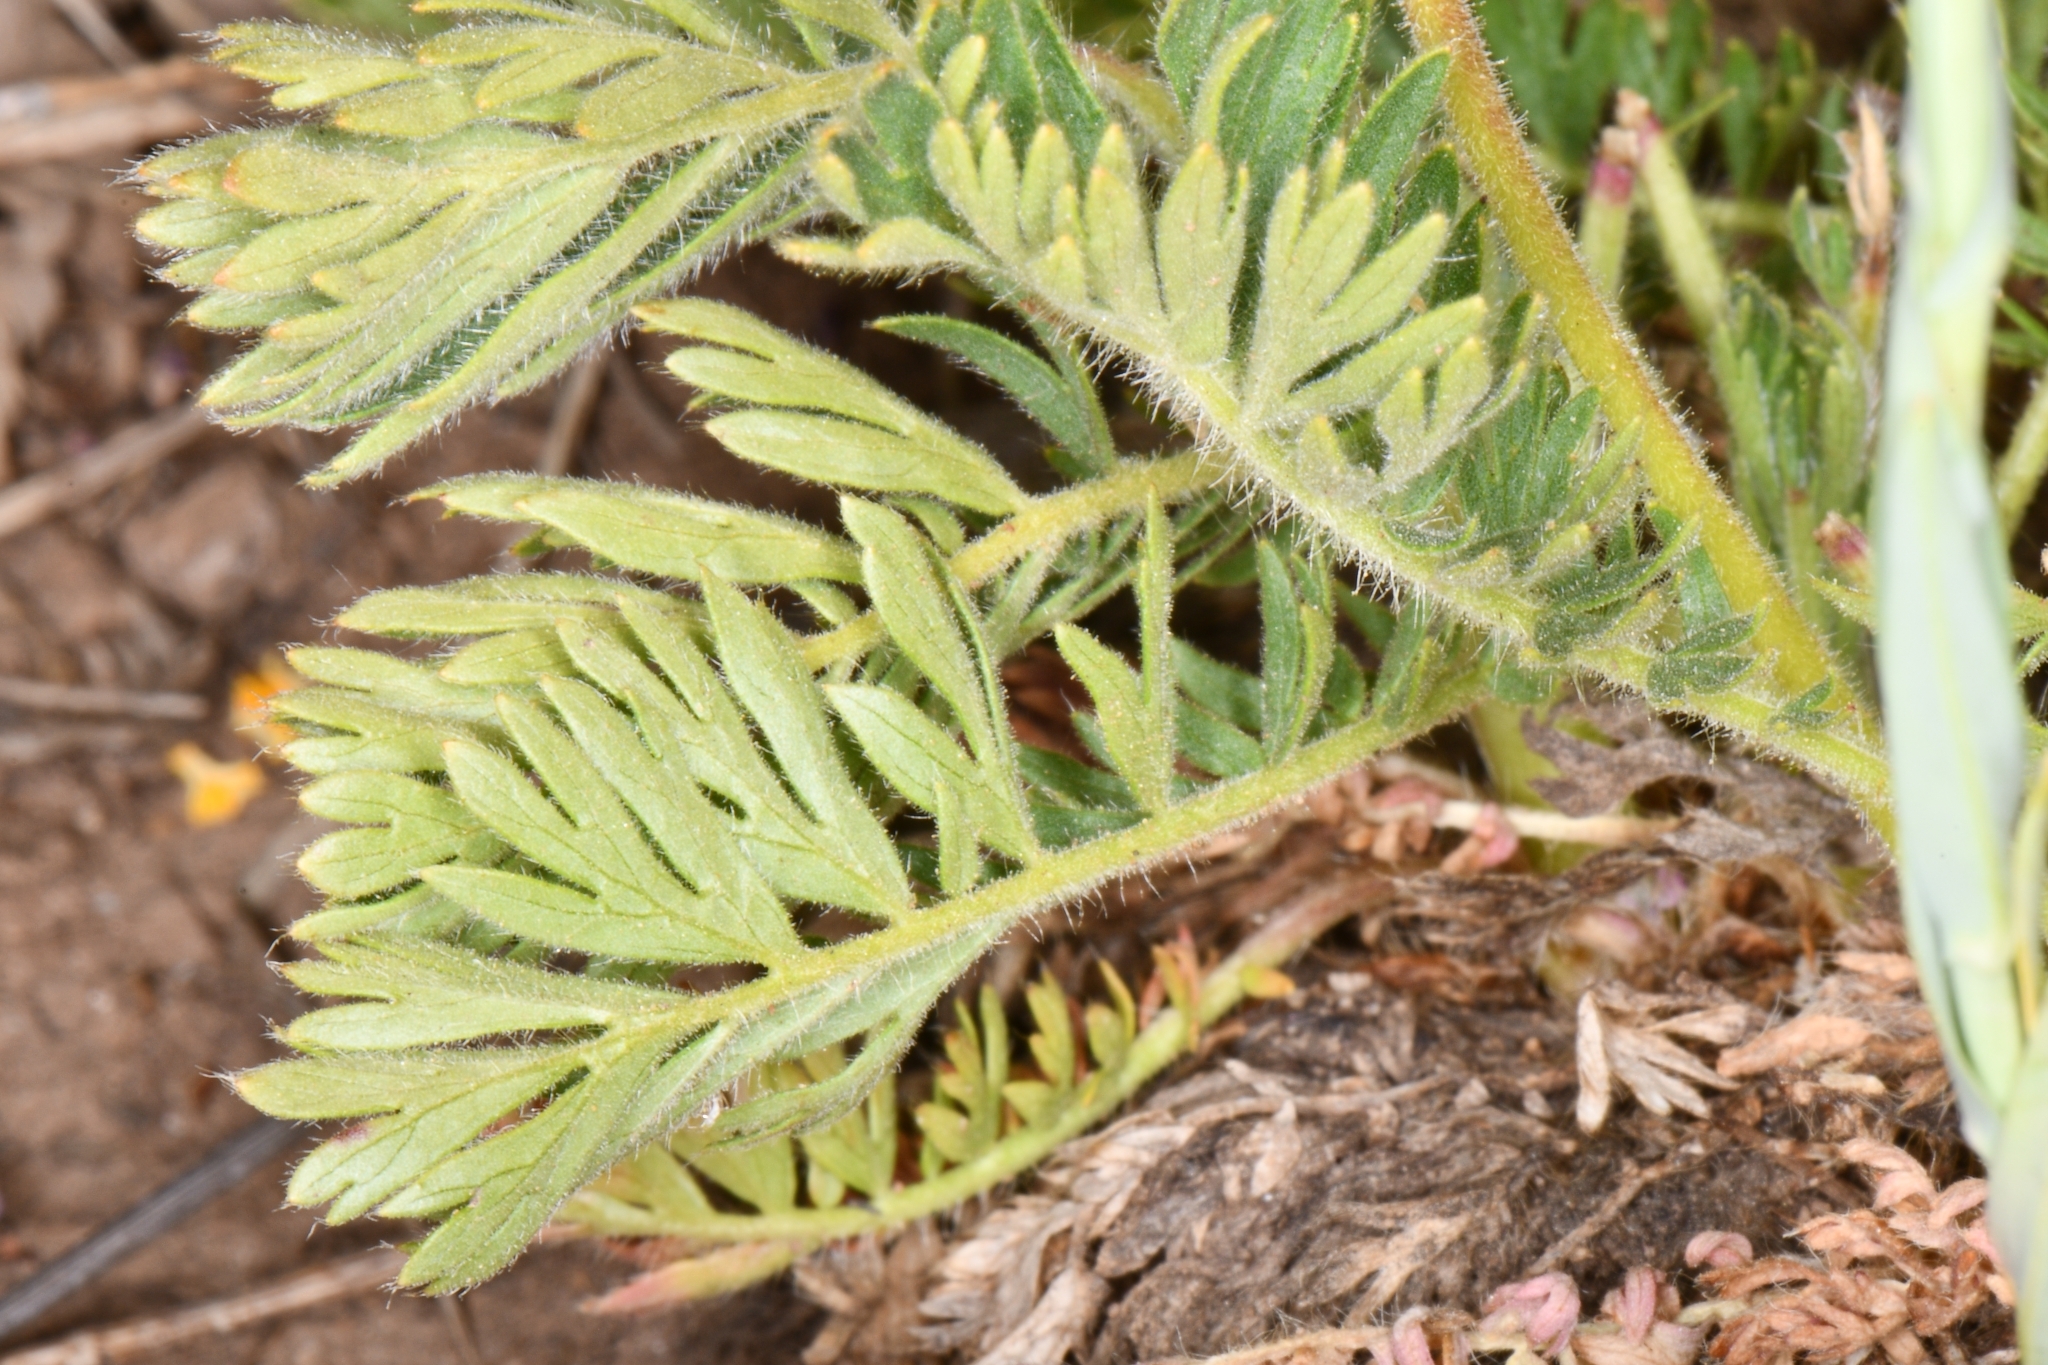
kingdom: Plantae
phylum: Tracheophyta
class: Magnoliopsida
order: Rosales
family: Rosaceae
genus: Geum
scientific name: Geum triflorum
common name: Old man's whiskers
